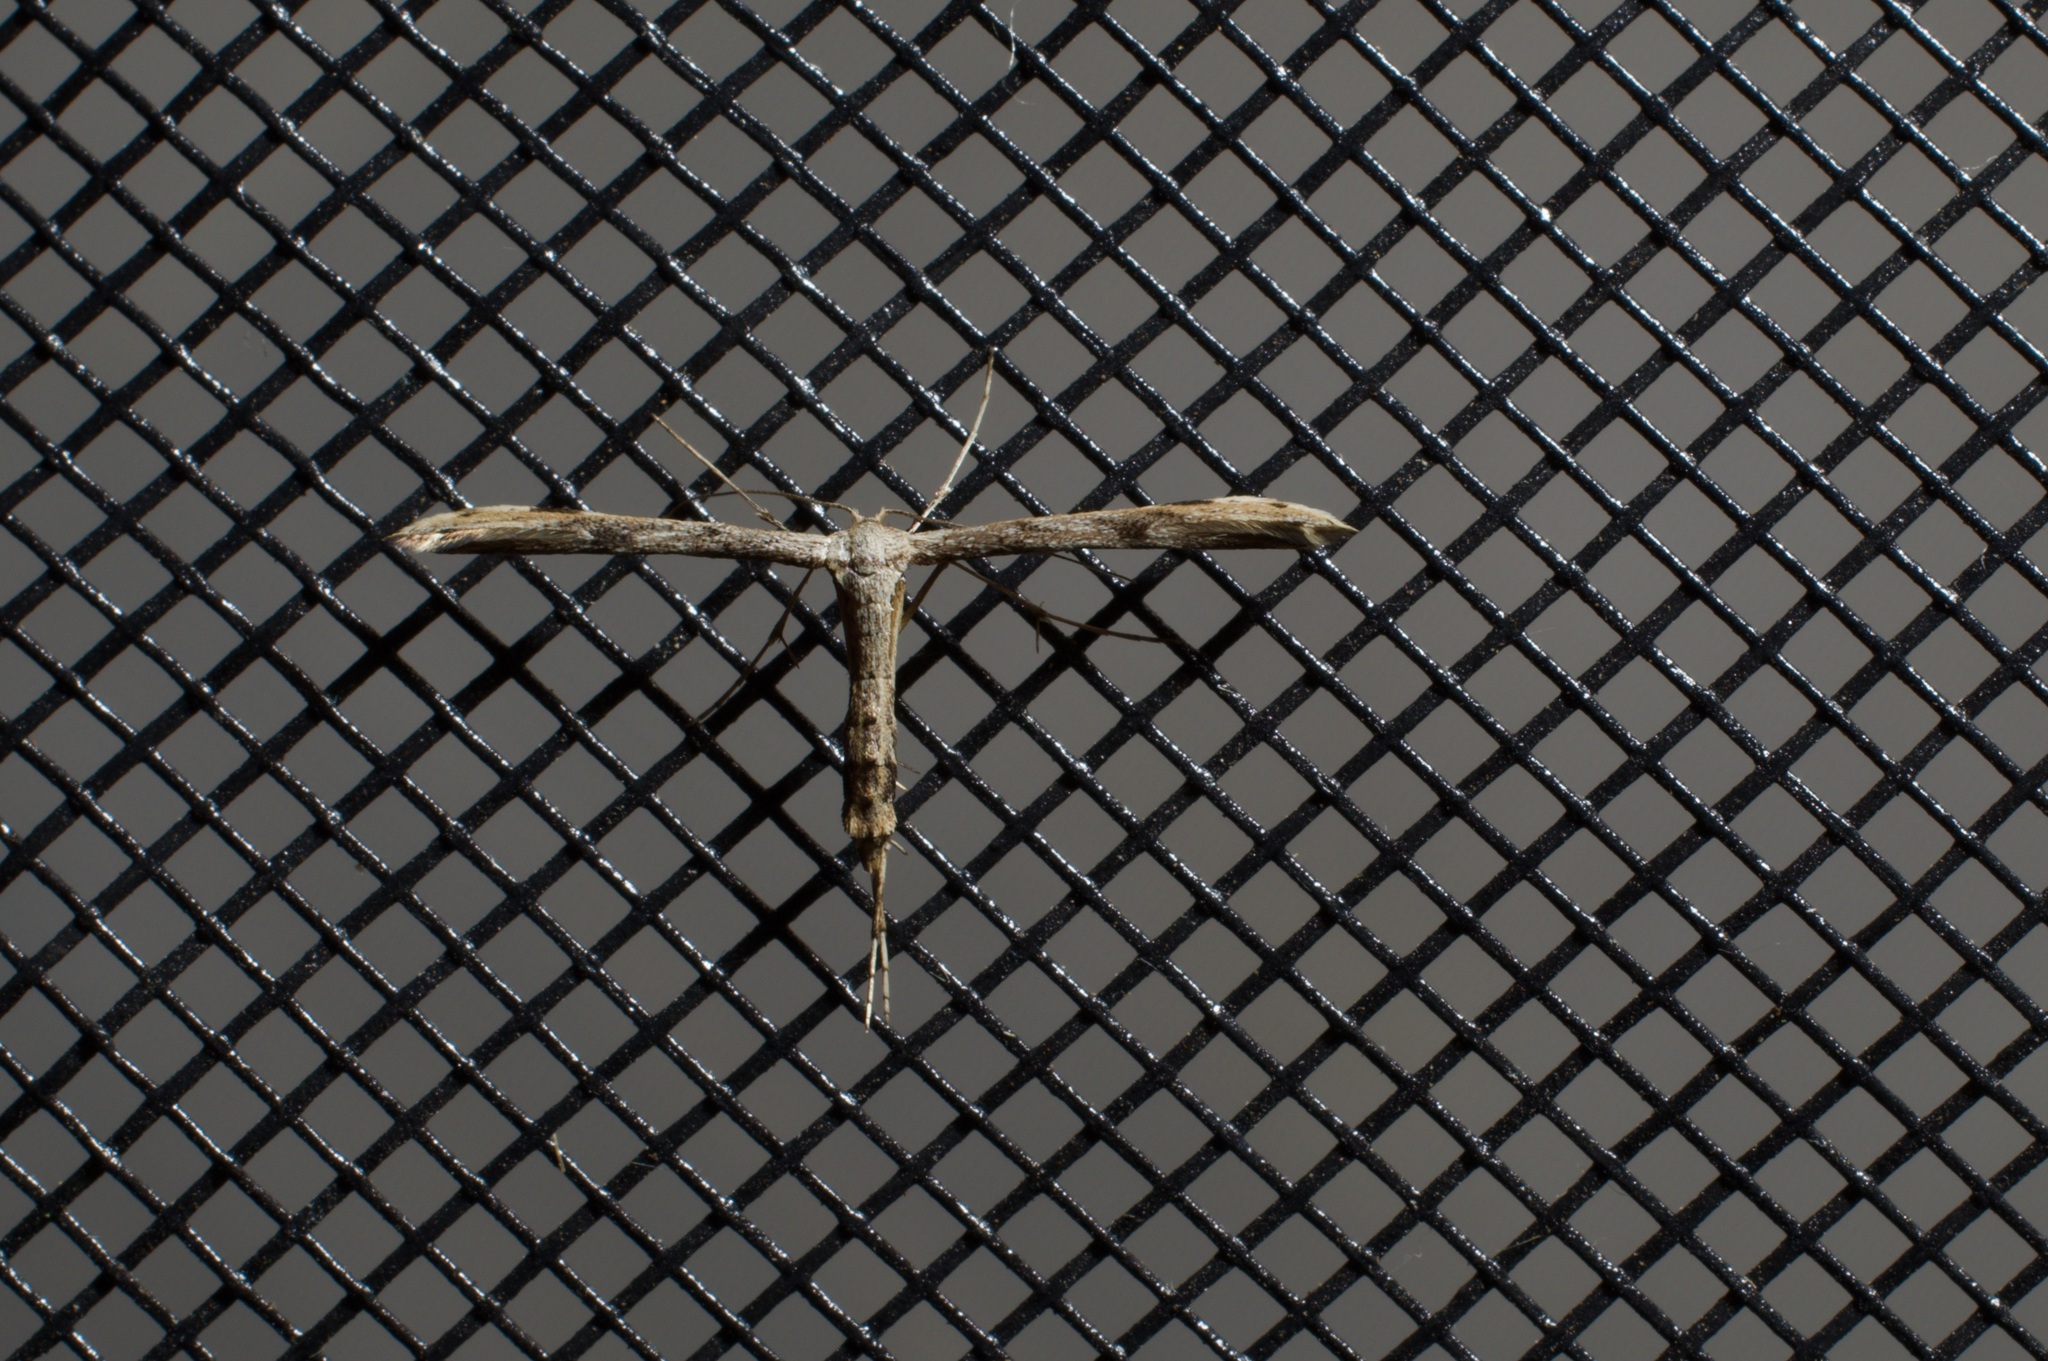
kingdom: Animalia
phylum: Arthropoda
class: Insecta
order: Lepidoptera
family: Pterophoridae
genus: Adaina
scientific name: Adaina ambrosiae
